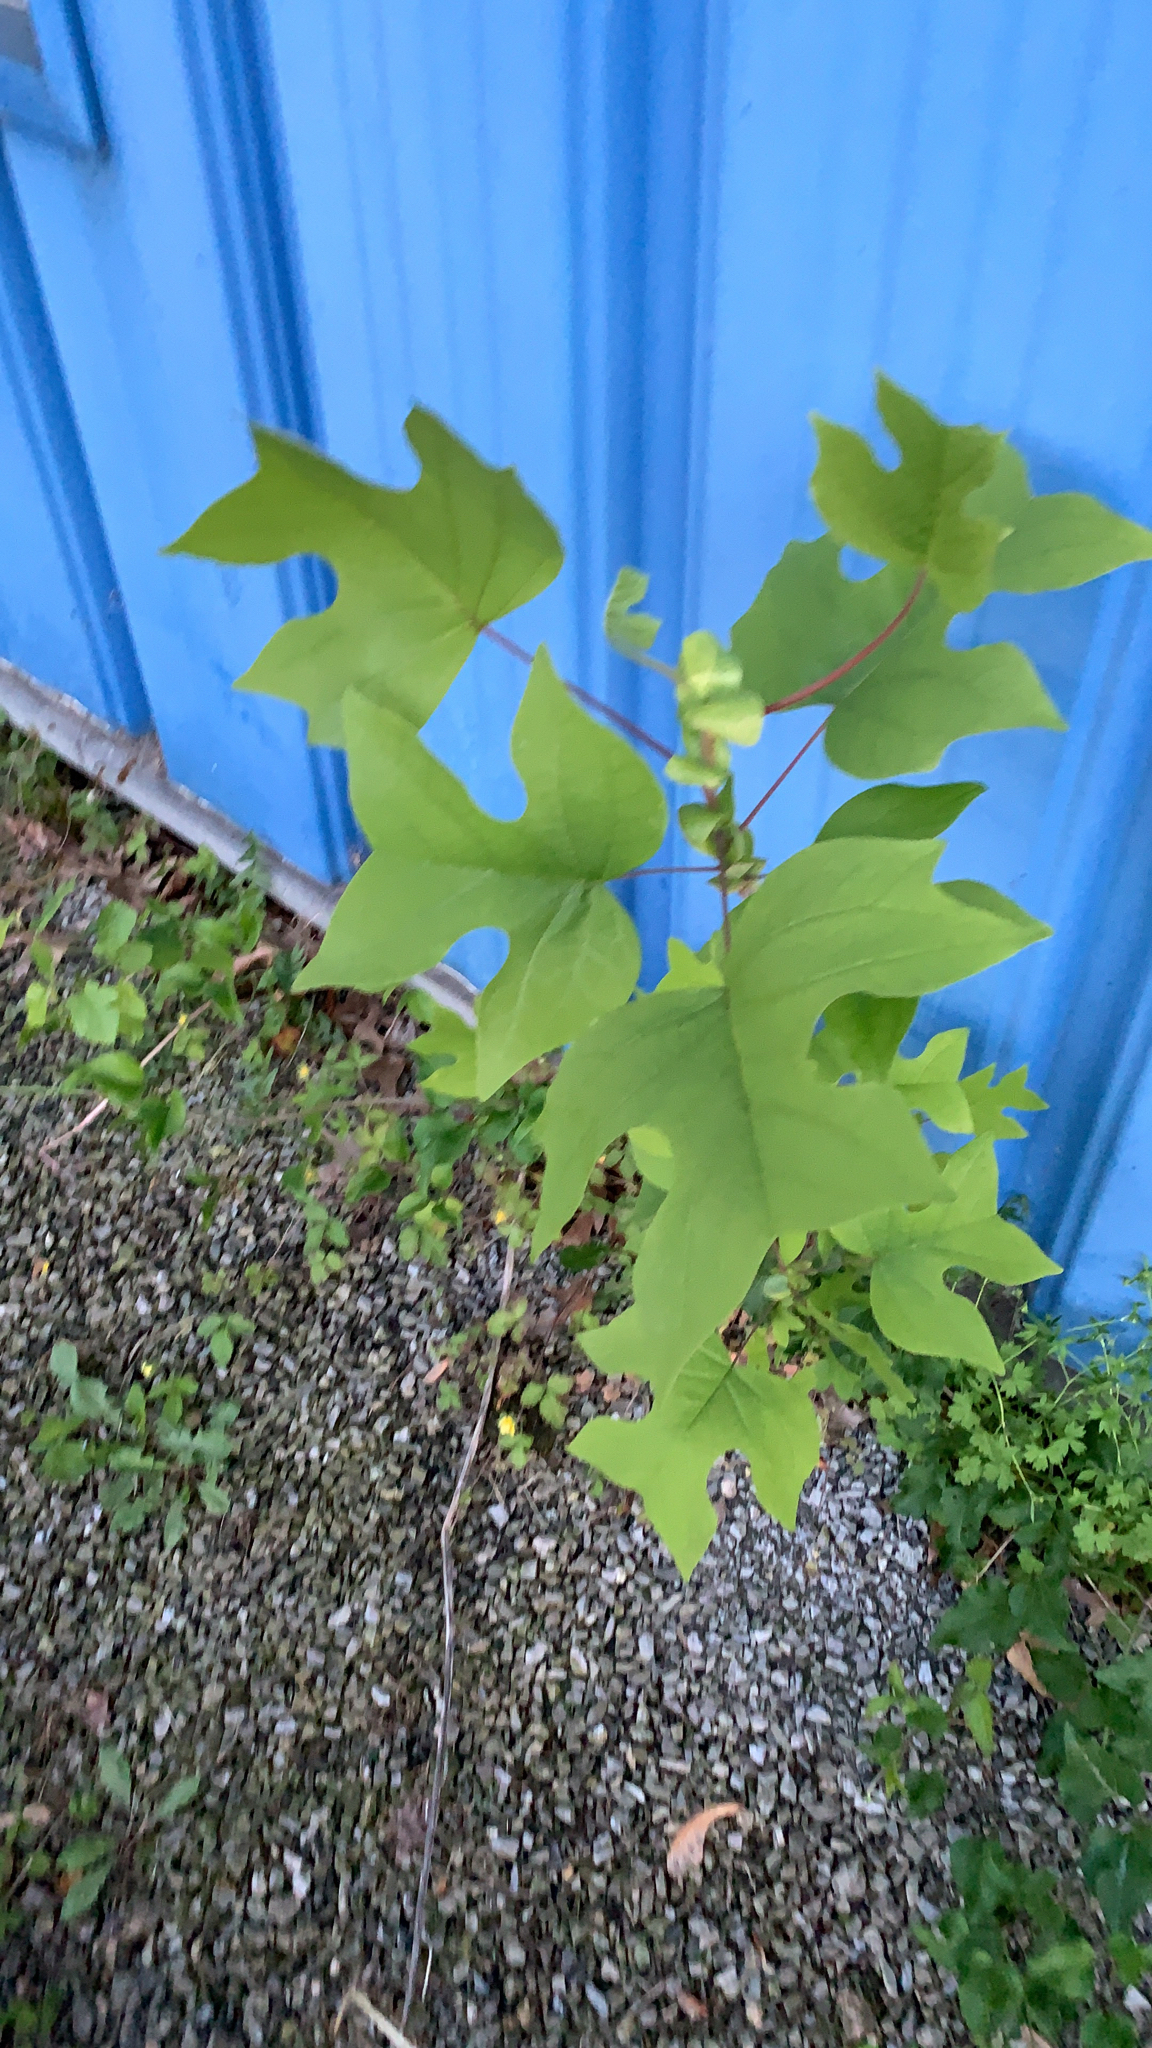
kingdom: Plantae
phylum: Tracheophyta
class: Magnoliopsida
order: Magnoliales
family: Magnoliaceae
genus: Liriodendron
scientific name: Liriodendron tulipifera
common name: Tulip tree
